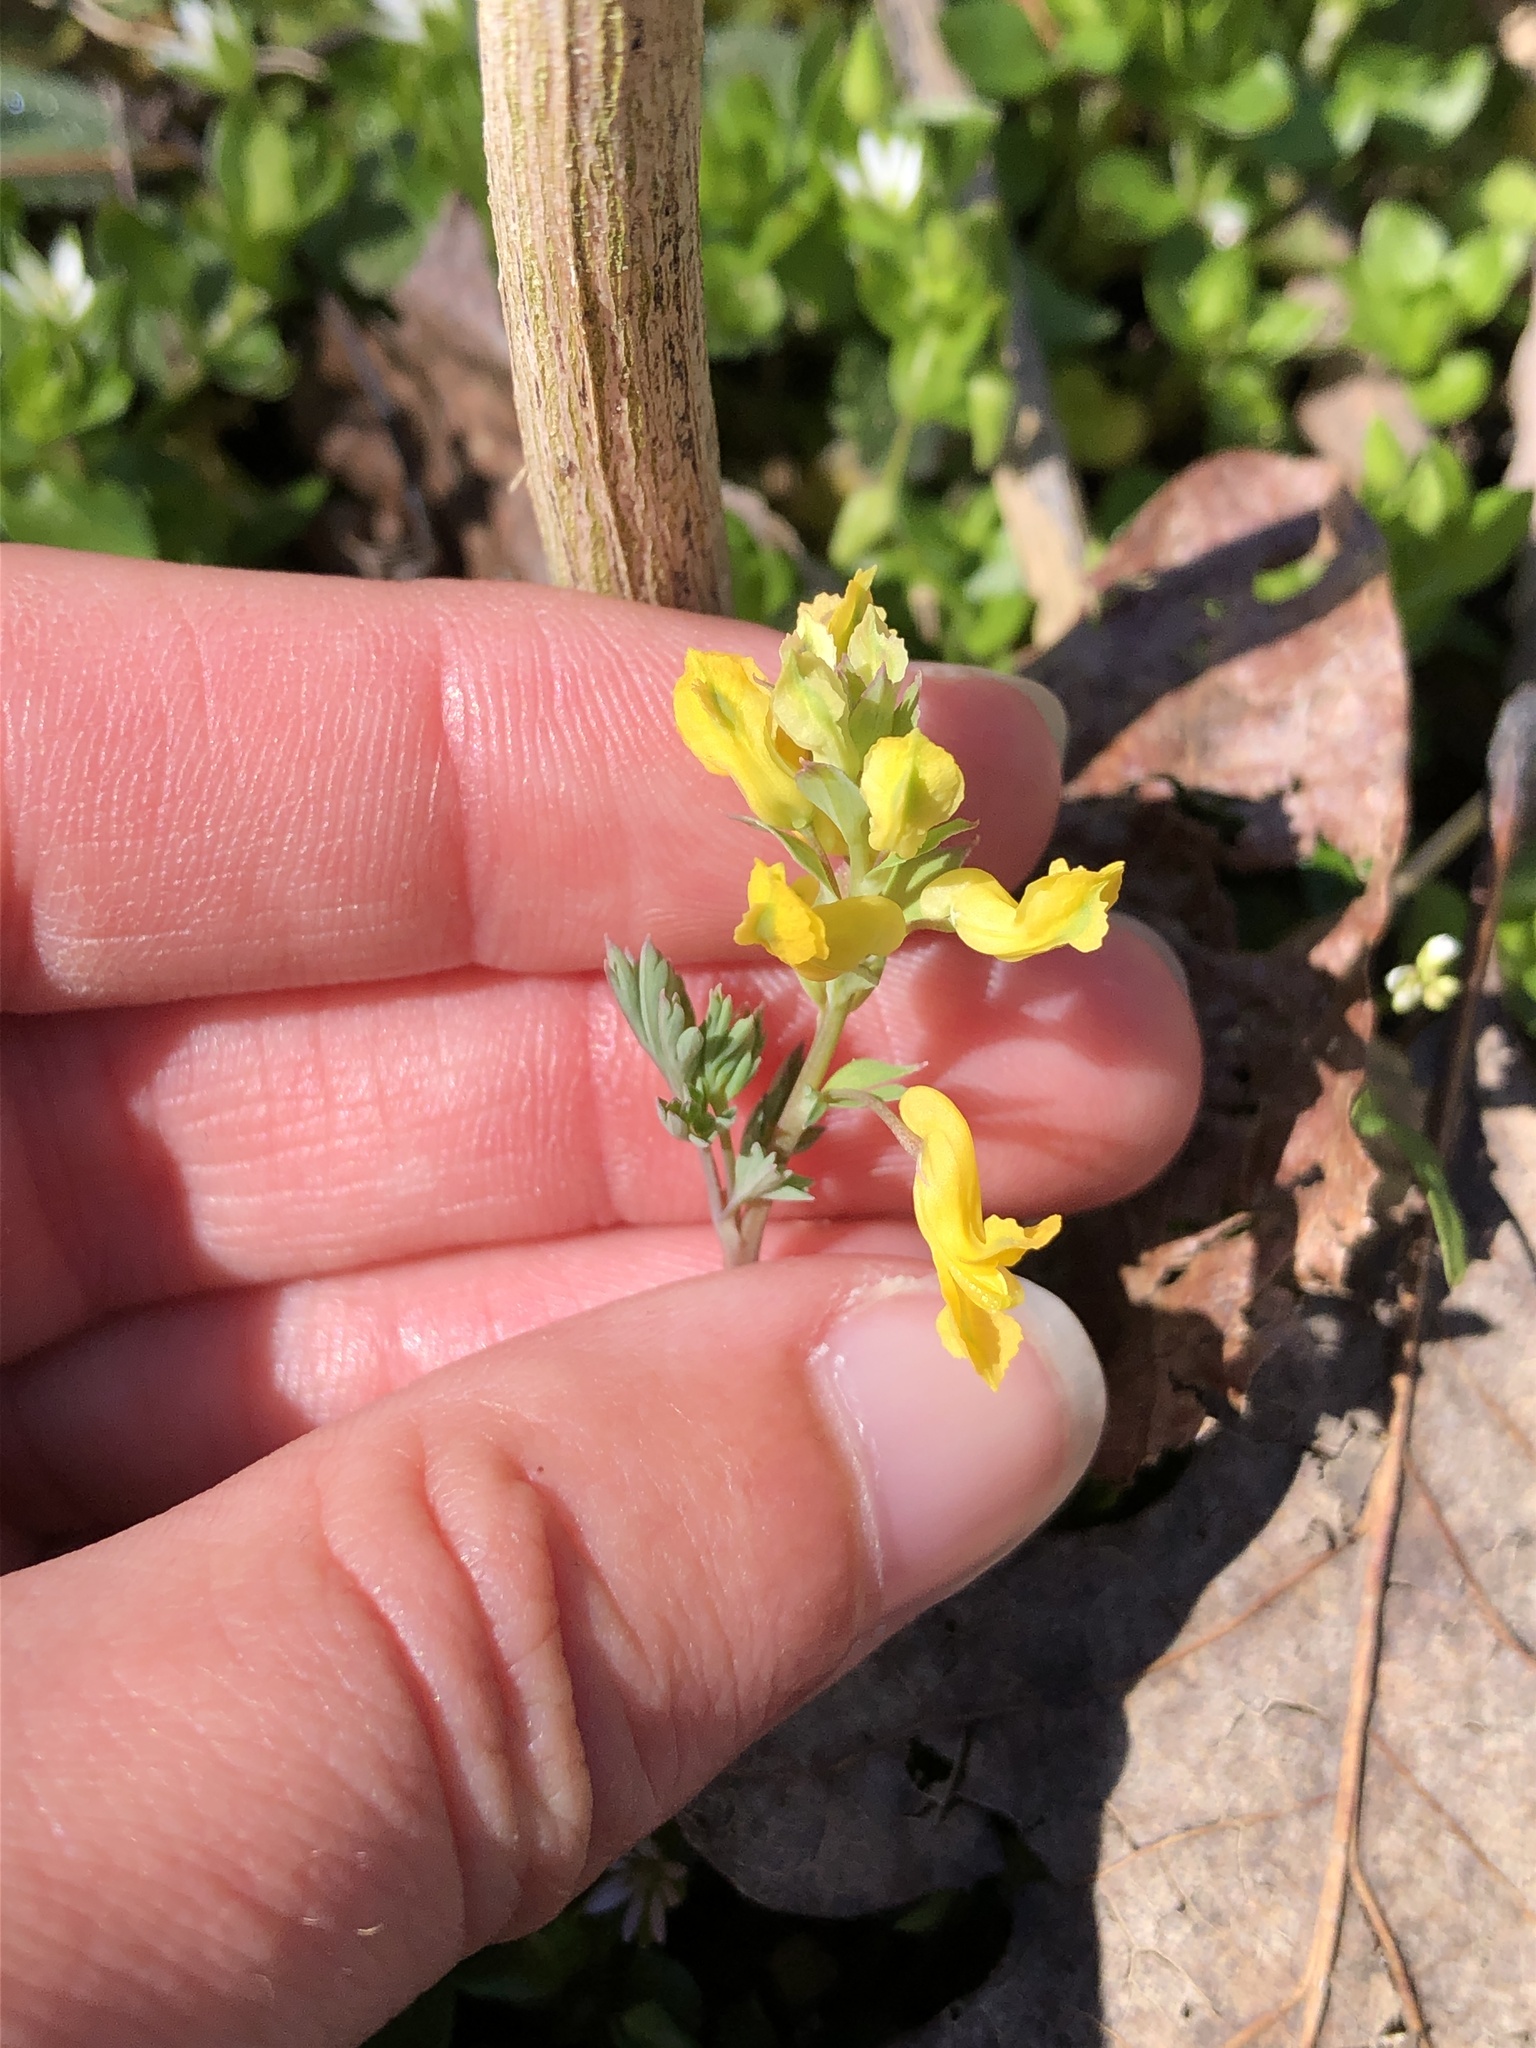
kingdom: Plantae
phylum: Tracheophyta
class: Magnoliopsida
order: Ranunculales
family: Papaveraceae
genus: Corydalis
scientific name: Corydalis flavula
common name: Yellow corydalis
